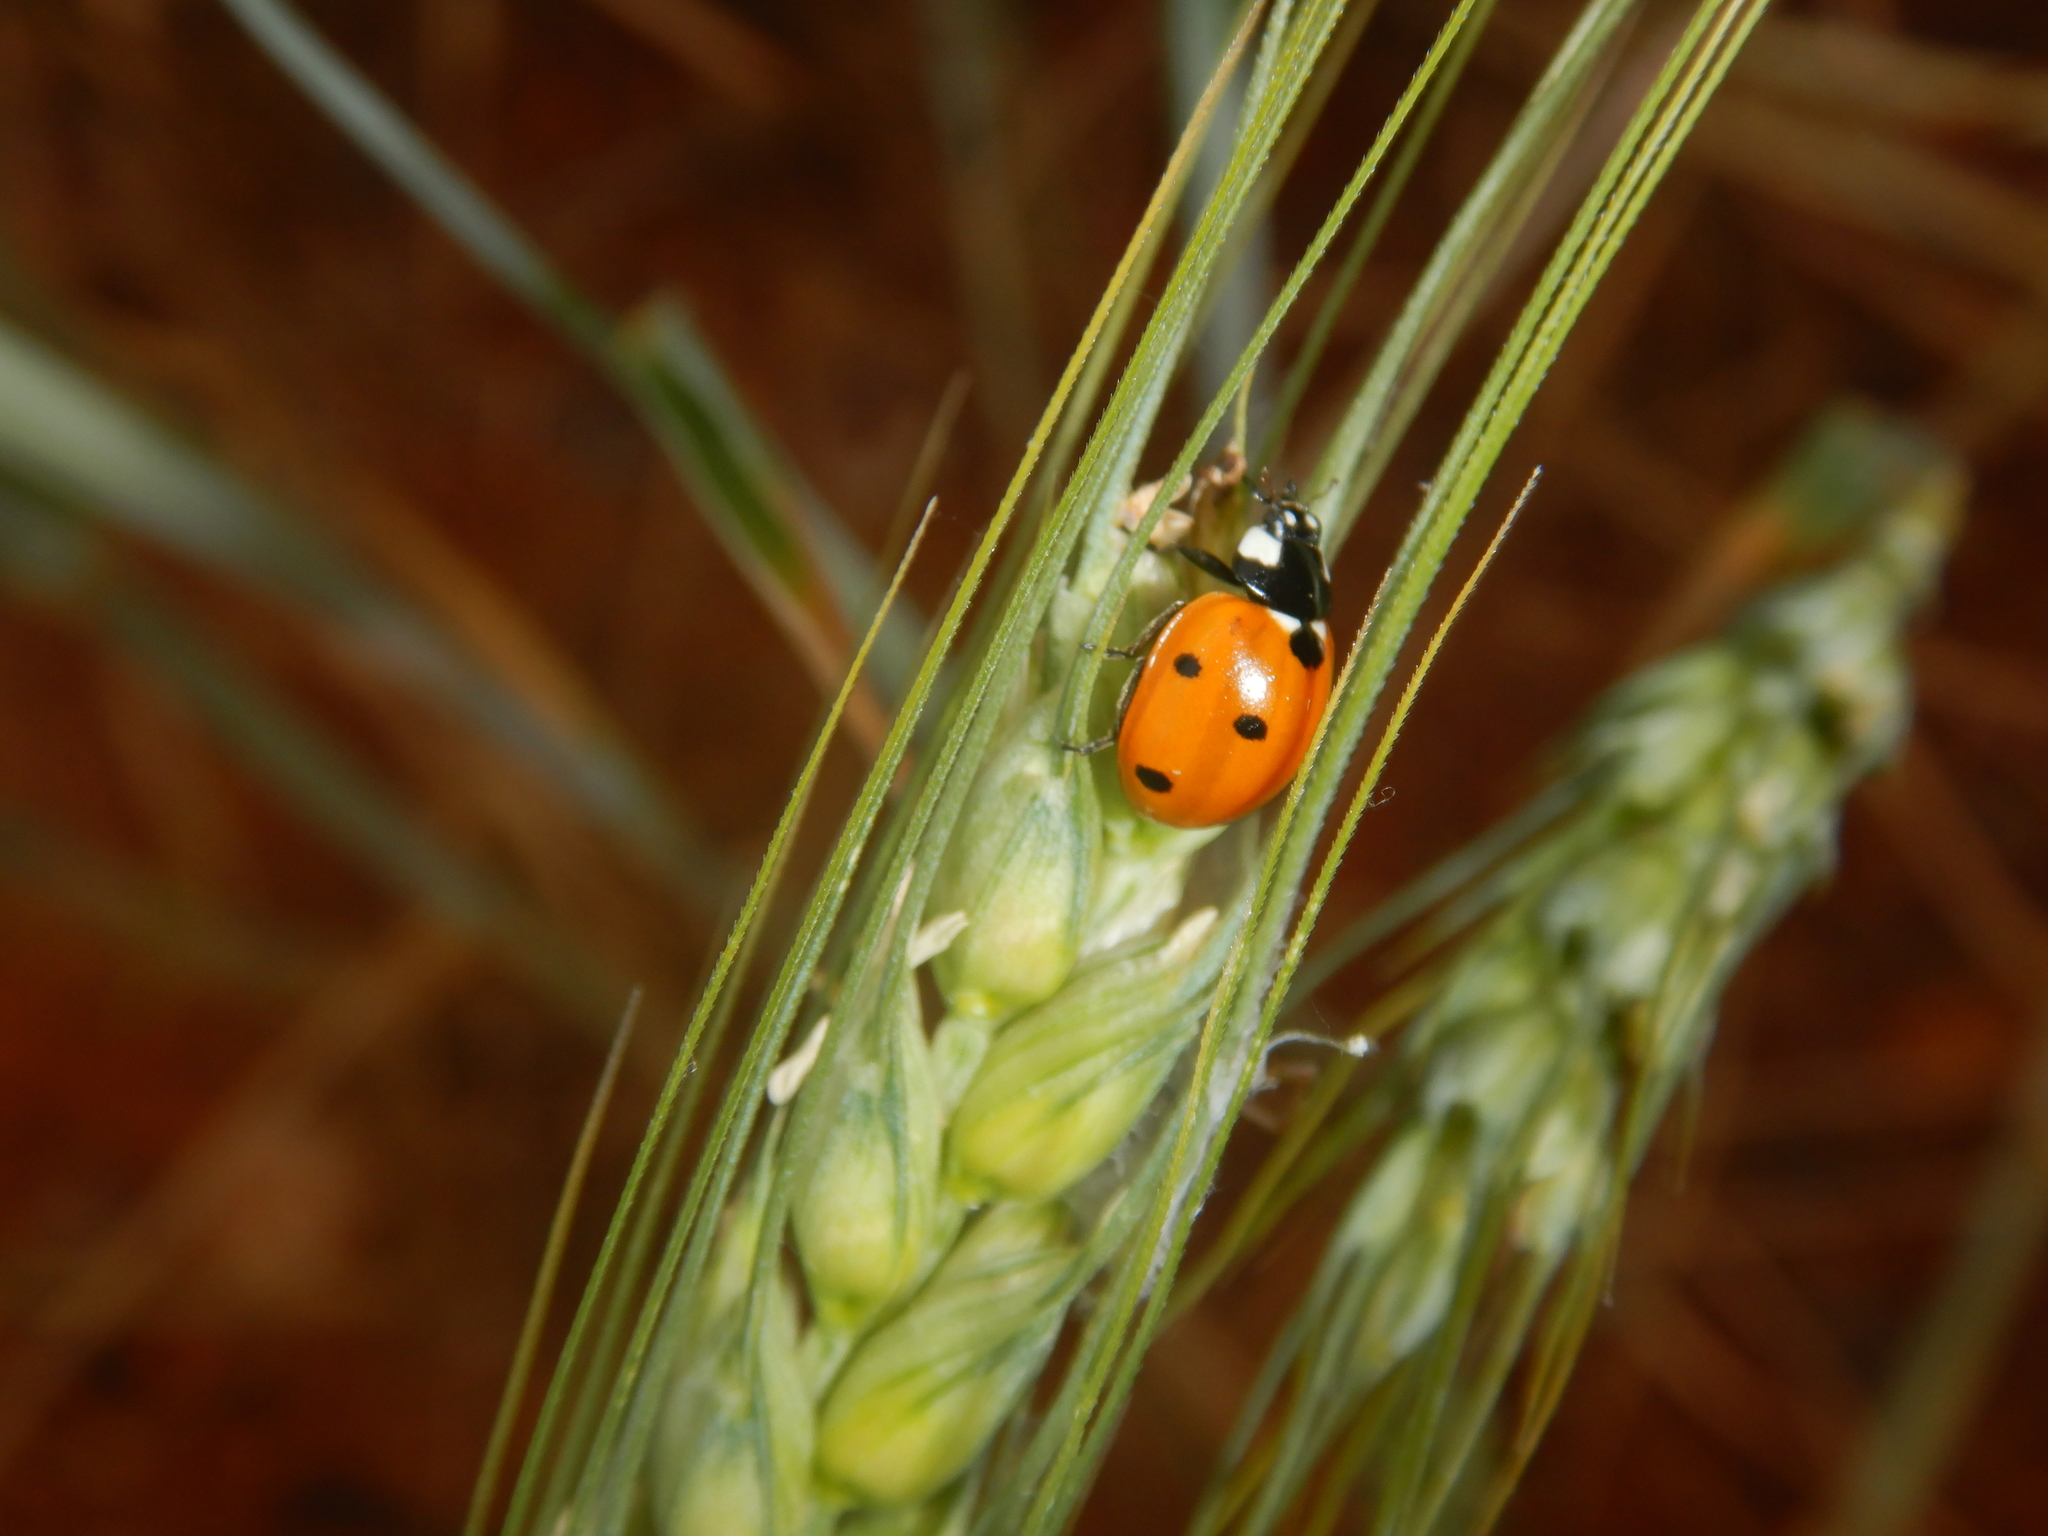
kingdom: Animalia
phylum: Arthropoda
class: Insecta
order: Coleoptera
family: Coccinellidae
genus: Coccinella
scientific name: Coccinella septempunctata
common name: Sevenspotted lady beetle
